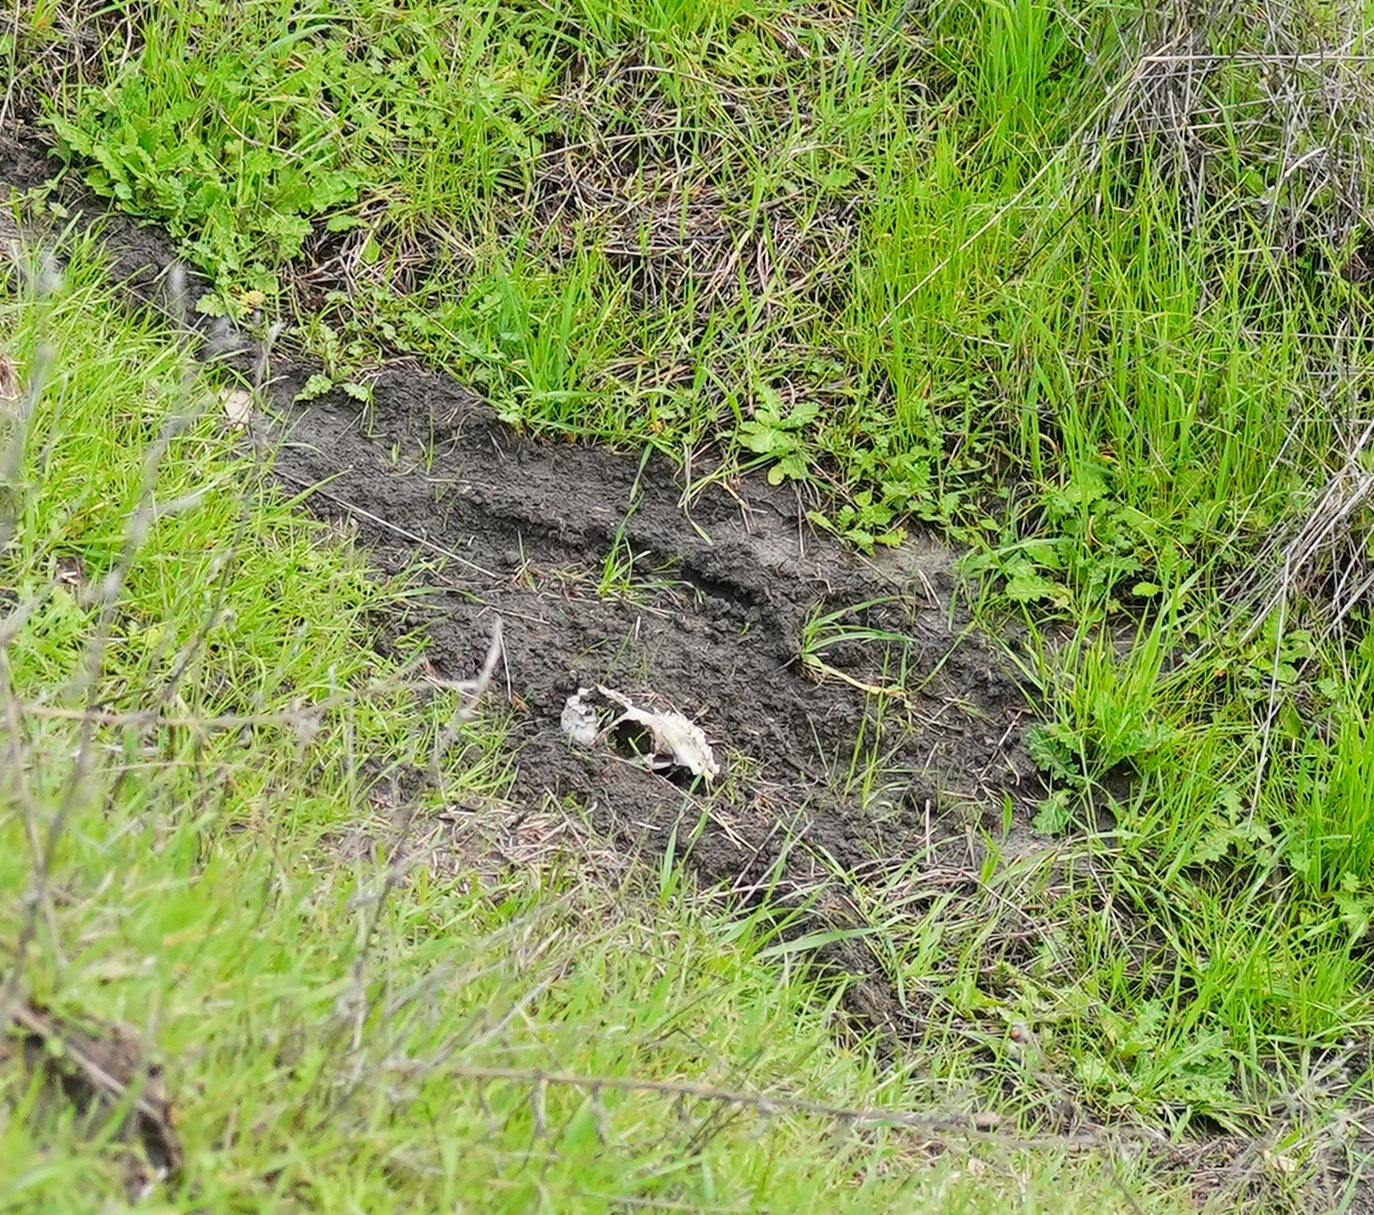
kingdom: Animalia
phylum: Chordata
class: Mammalia
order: Artiodactyla
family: Cervidae
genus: Odocoileus
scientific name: Odocoileus hemionus
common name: Mule deer
